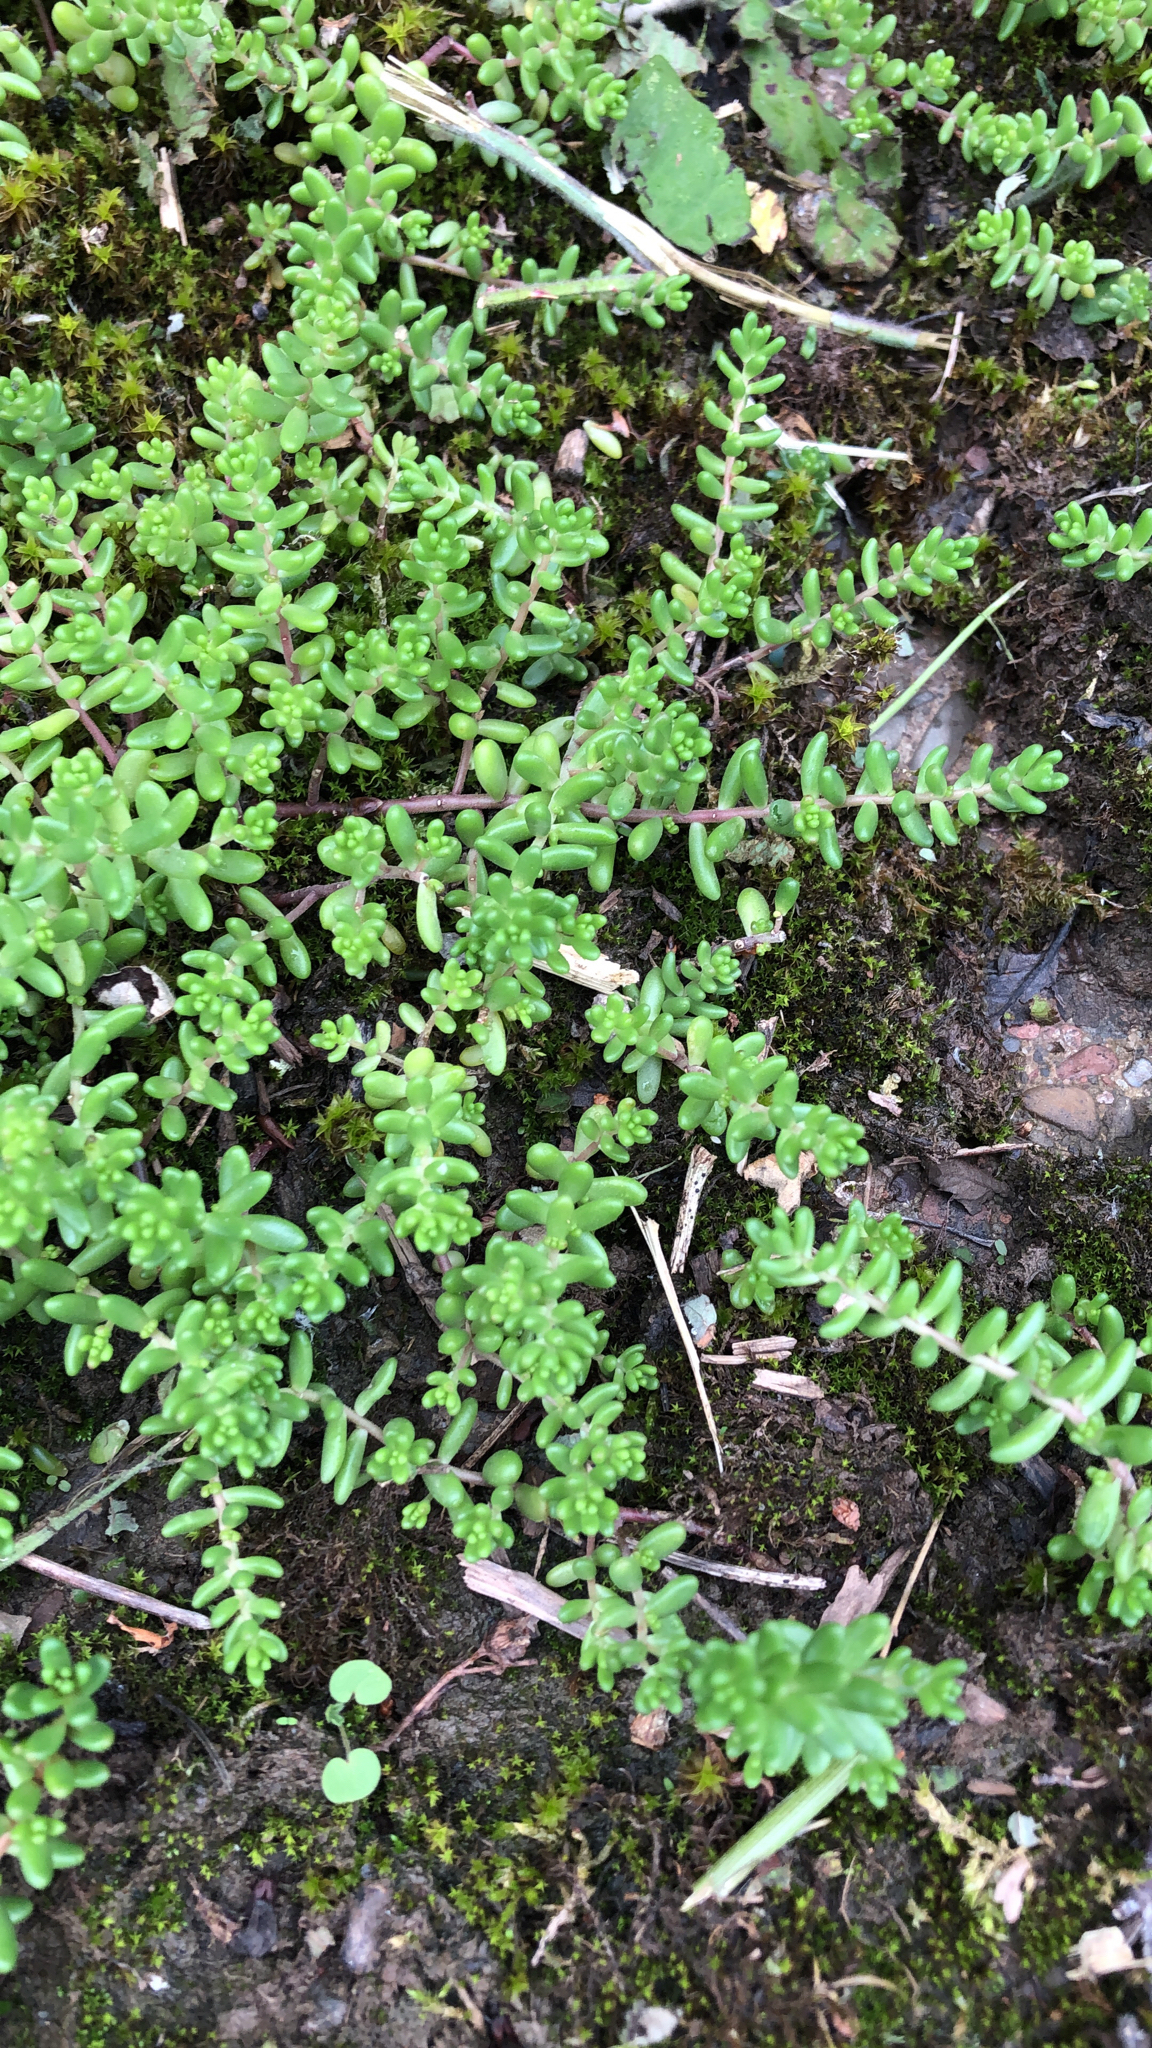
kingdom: Plantae
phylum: Tracheophyta
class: Magnoliopsida
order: Saxifragales
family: Crassulaceae
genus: Sedum
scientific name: Sedum album
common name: White stonecrop
